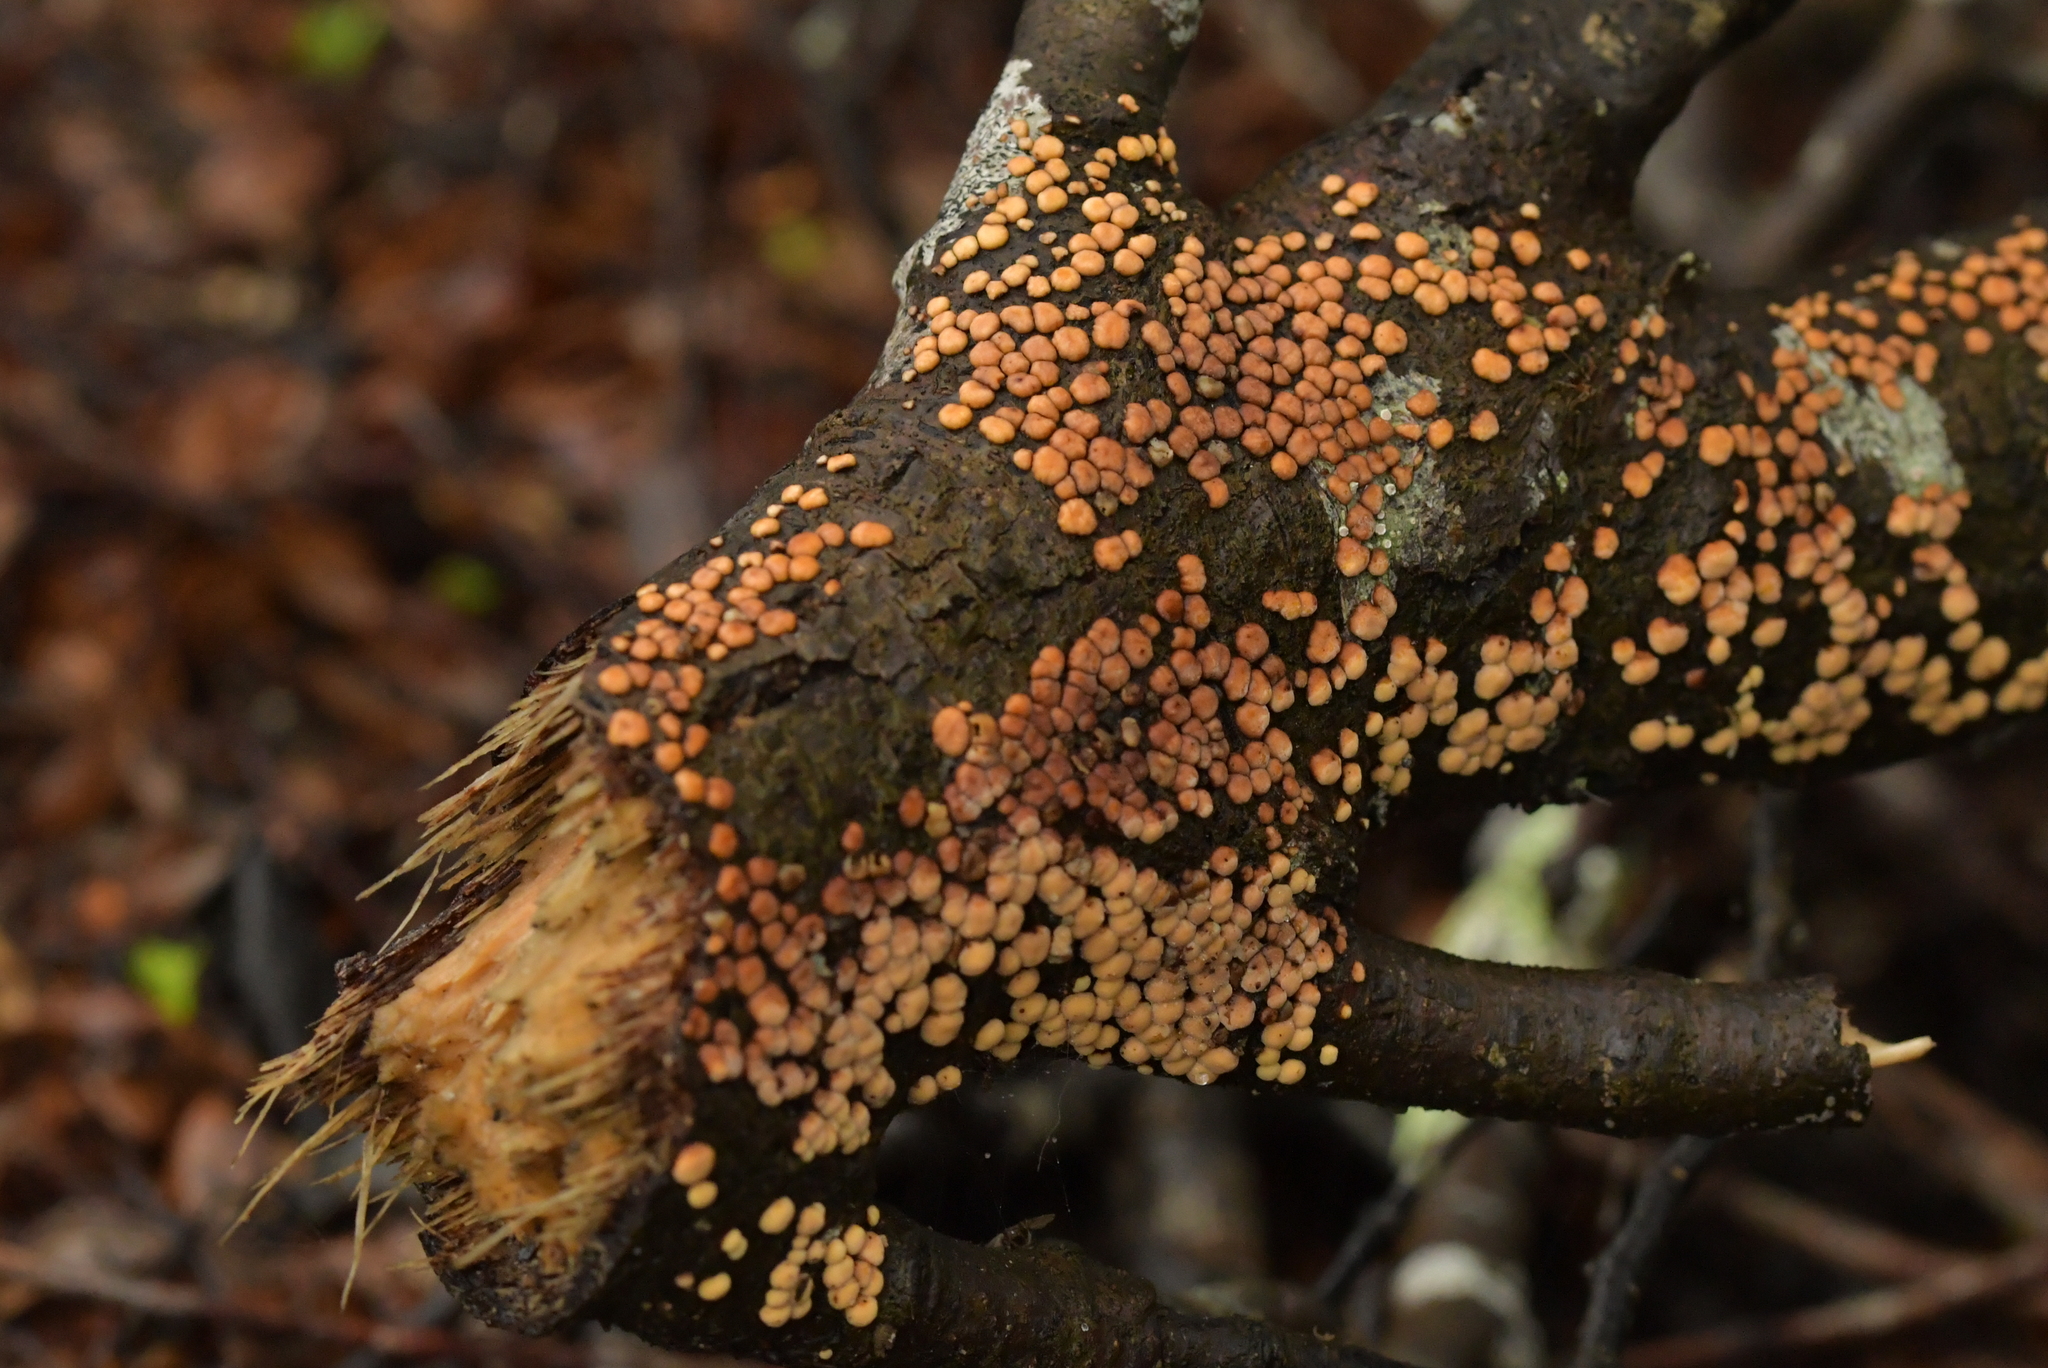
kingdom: Fungi
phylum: Basidiomycota
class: Agaricomycetes
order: Russulales
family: Stereaceae
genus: Aleurodiscus
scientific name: Aleurodiscus berggrenii
